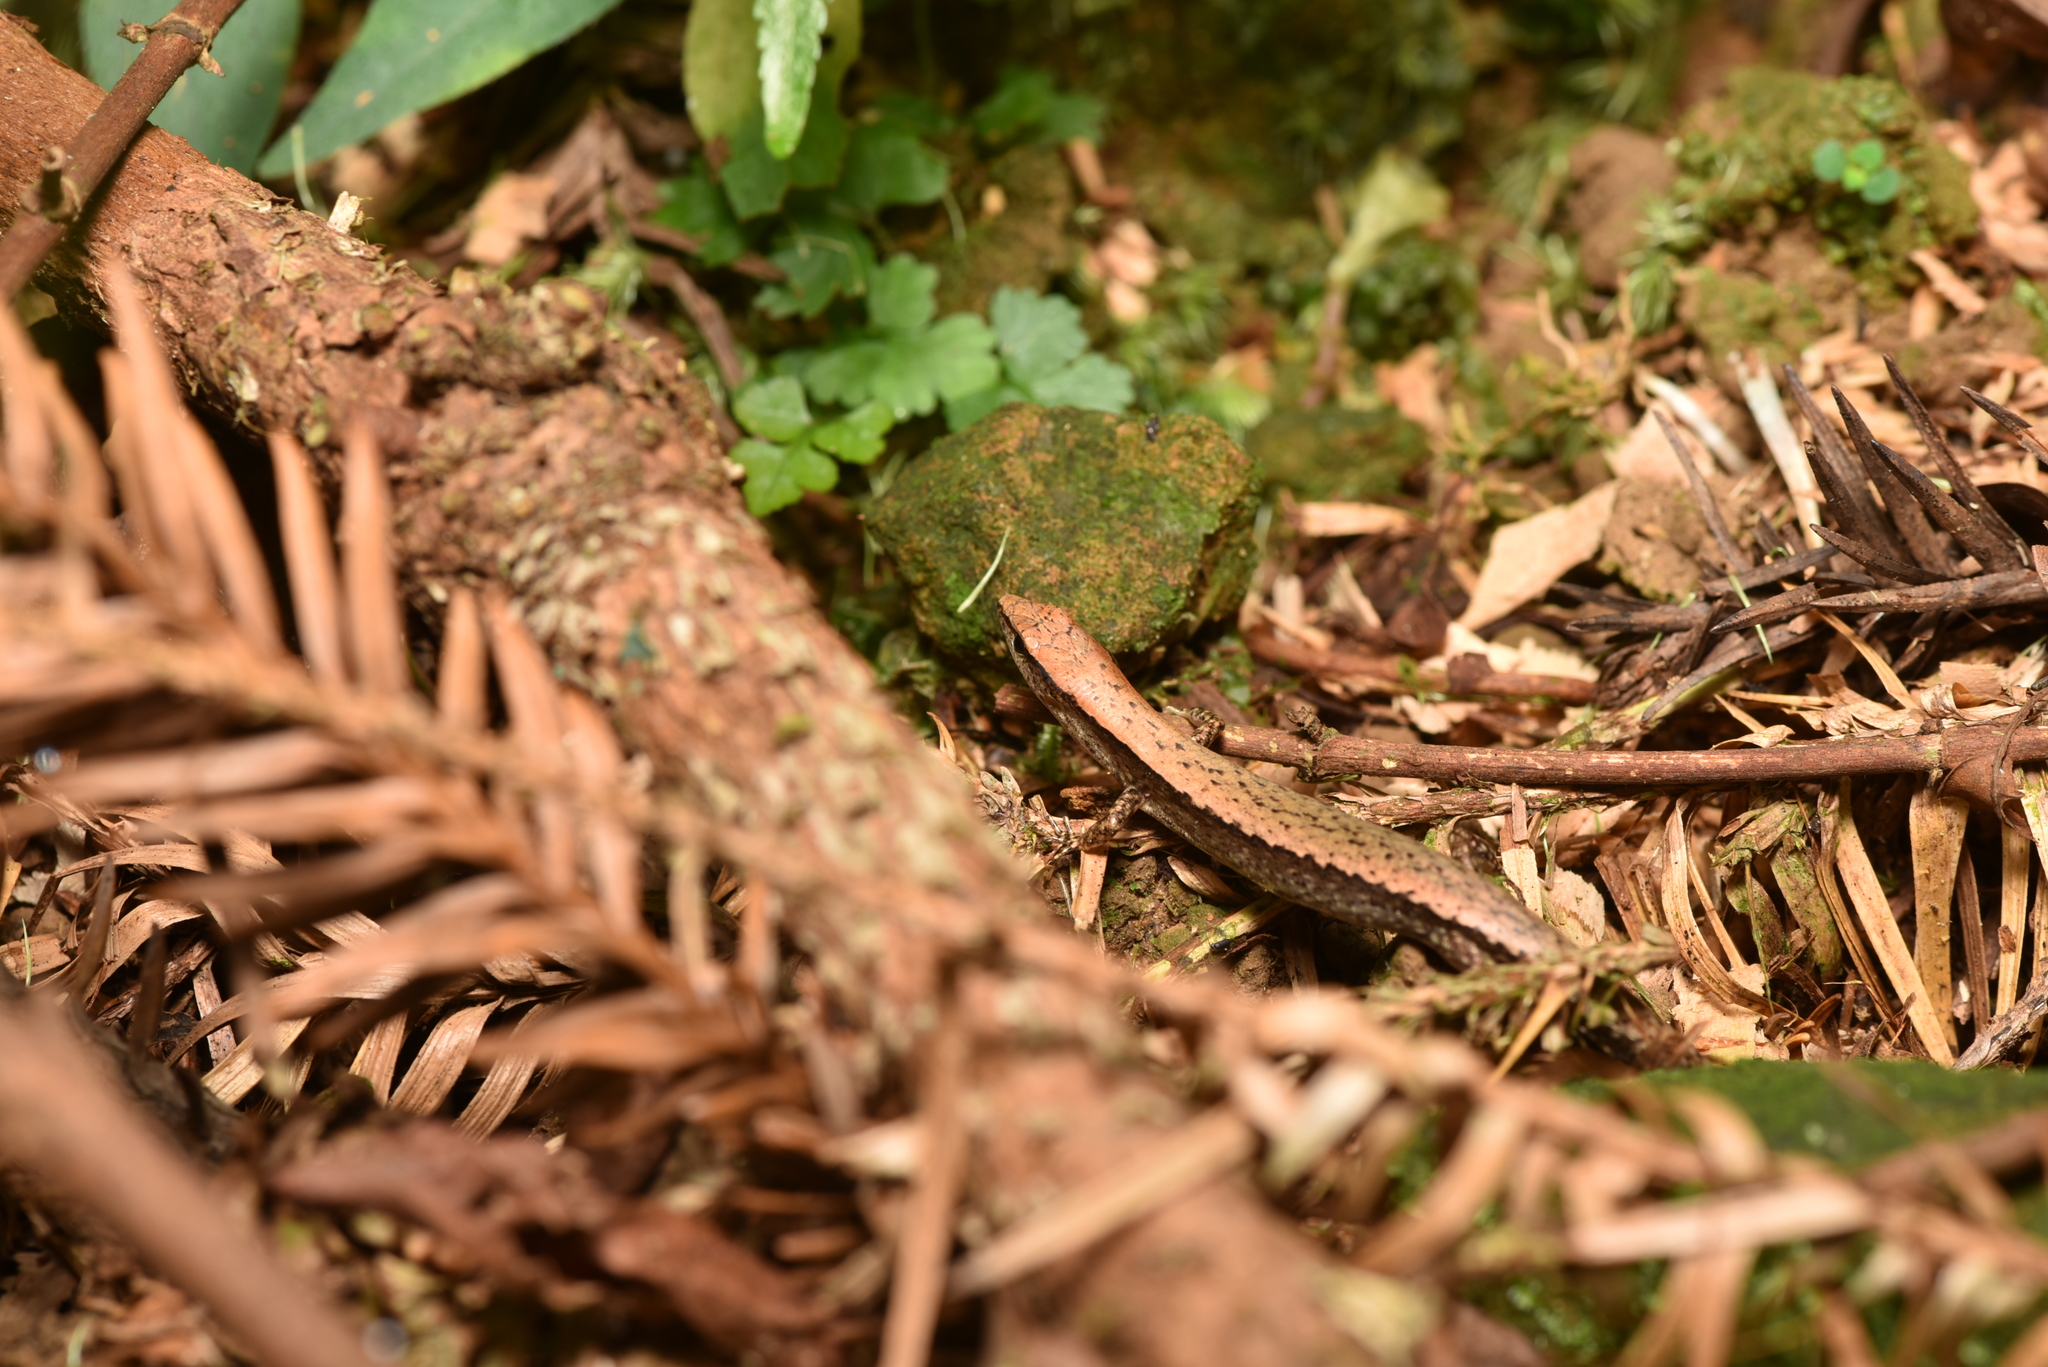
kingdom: Animalia
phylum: Chordata
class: Squamata
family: Scincidae
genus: Scincella
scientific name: Scincella formosensis
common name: Van denburgh's ground skink
